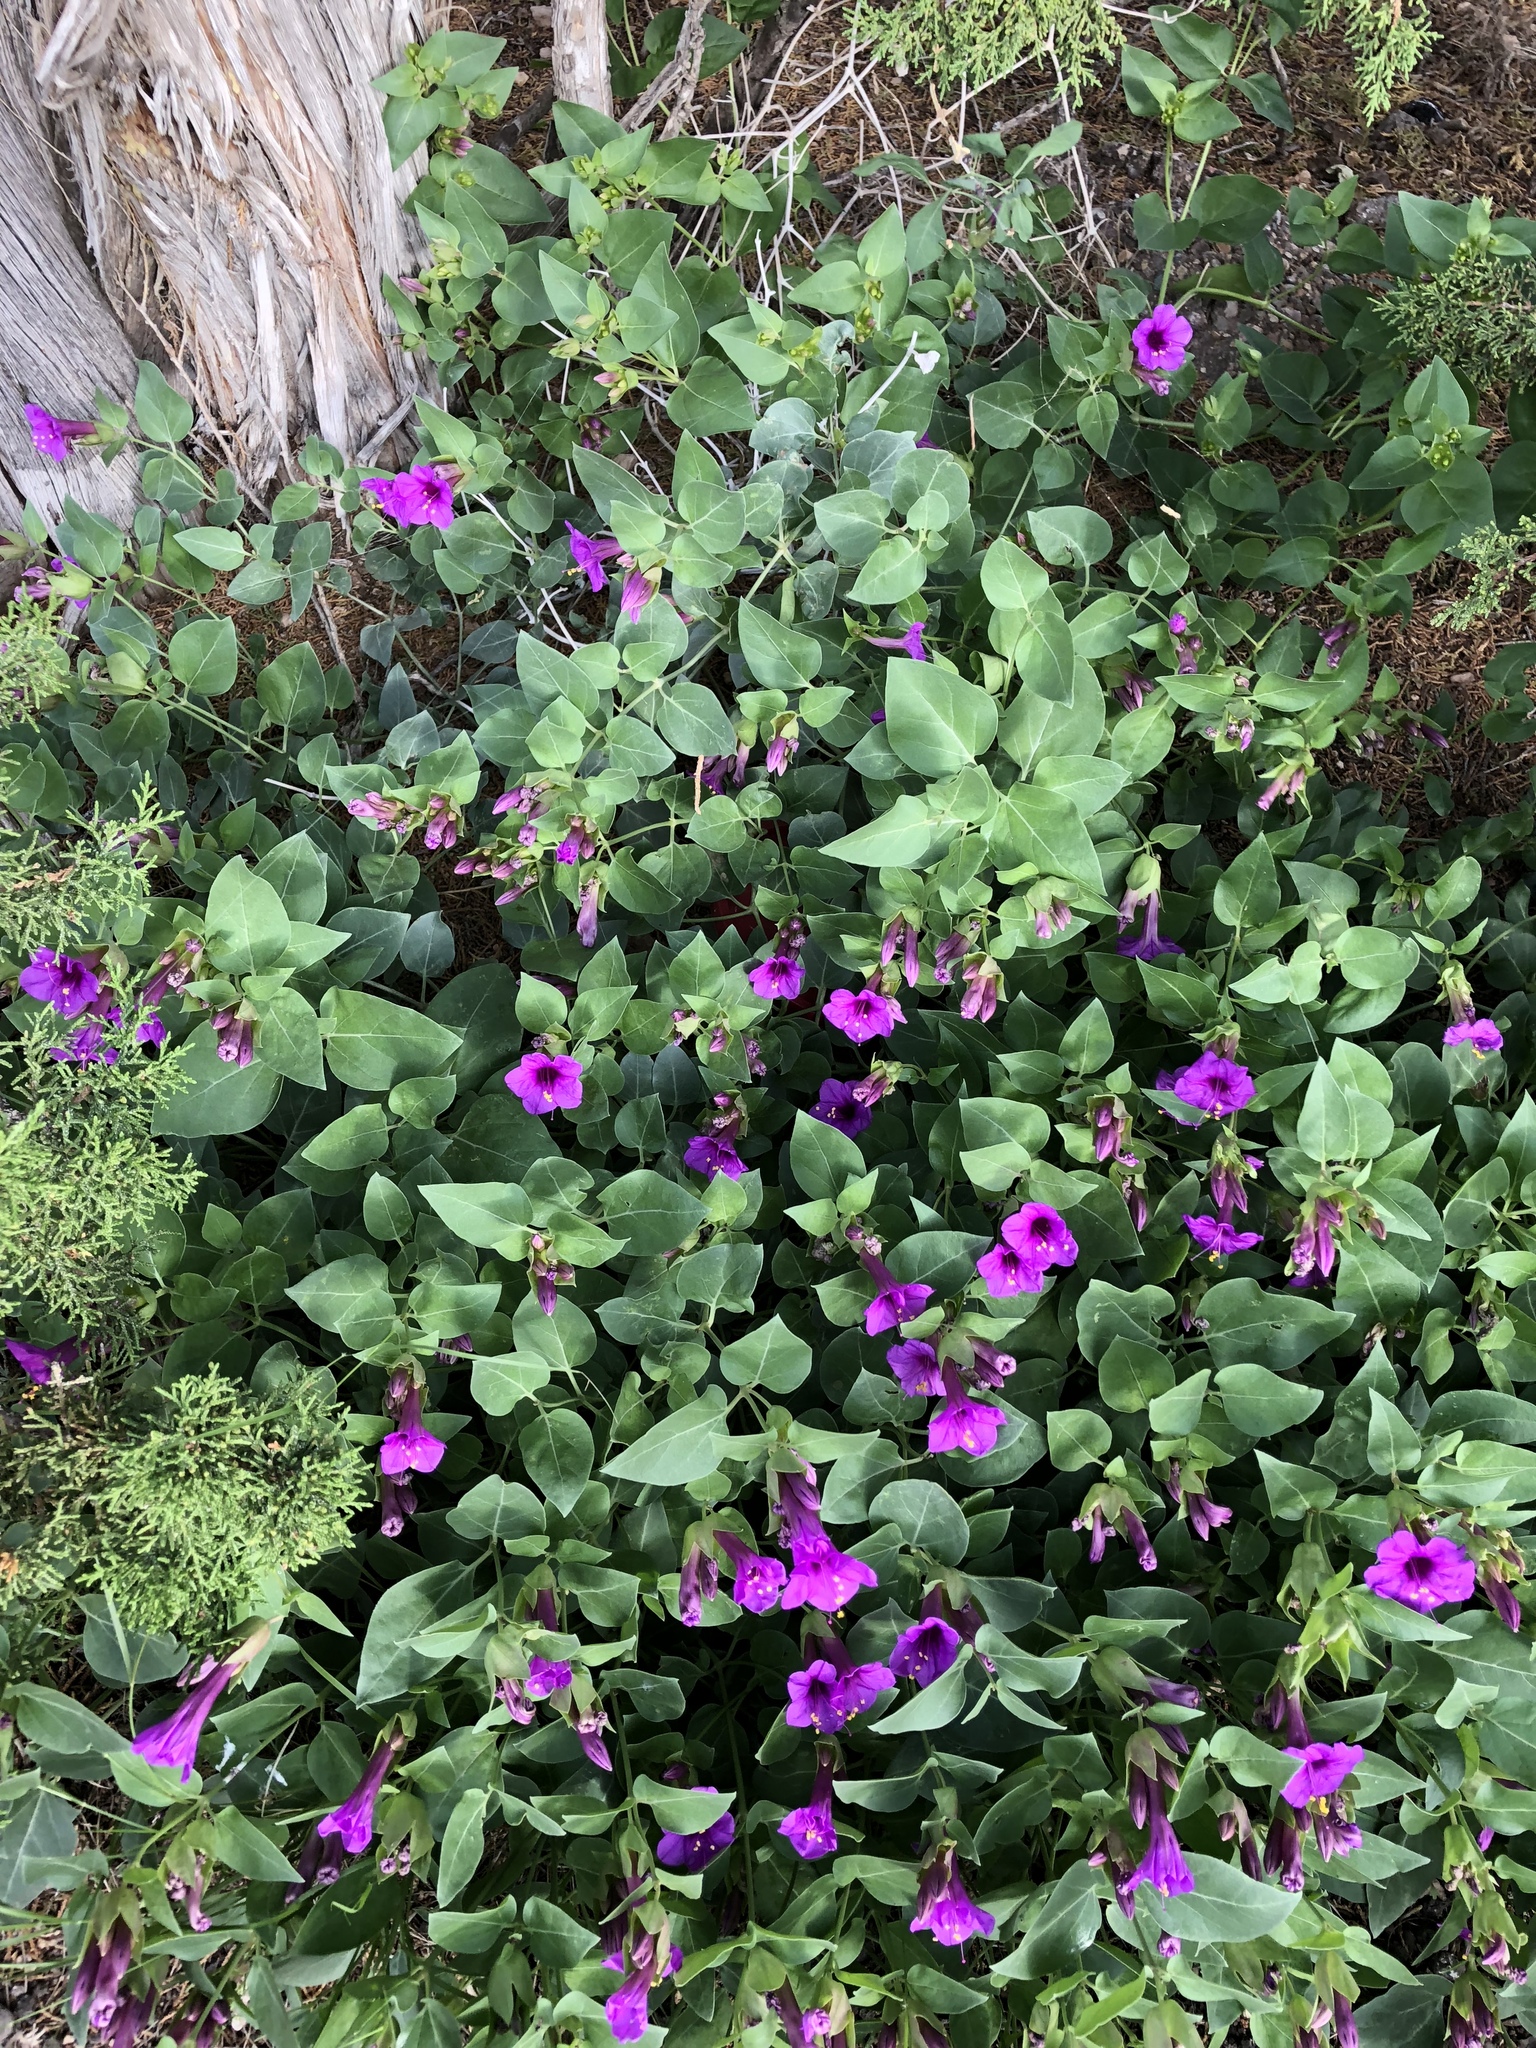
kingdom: Plantae
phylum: Tracheophyta
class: Magnoliopsida
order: Caryophyllales
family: Nyctaginaceae
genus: Mirabilis
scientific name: Mirabilis multiflora
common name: Froebel's four-o'clock
